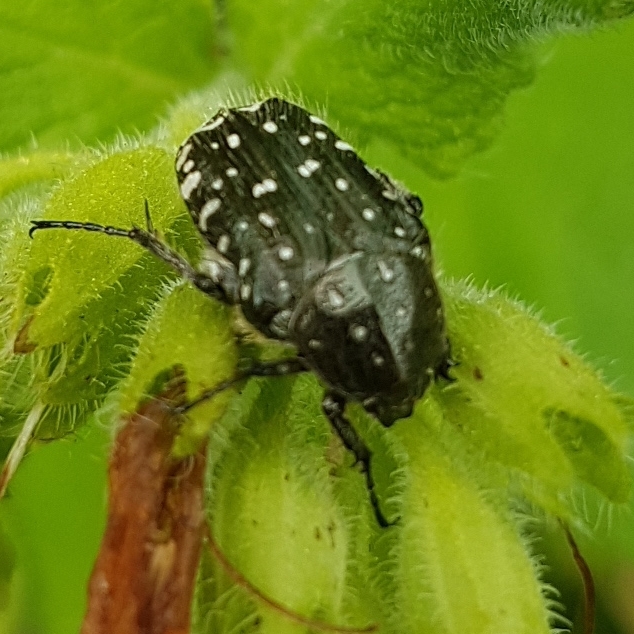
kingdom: Animalia
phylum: Arthropoda
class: Insecta
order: Coleoptera
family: Scarabaeidae
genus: Oxythyrea
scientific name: Oxythyrea funesta
